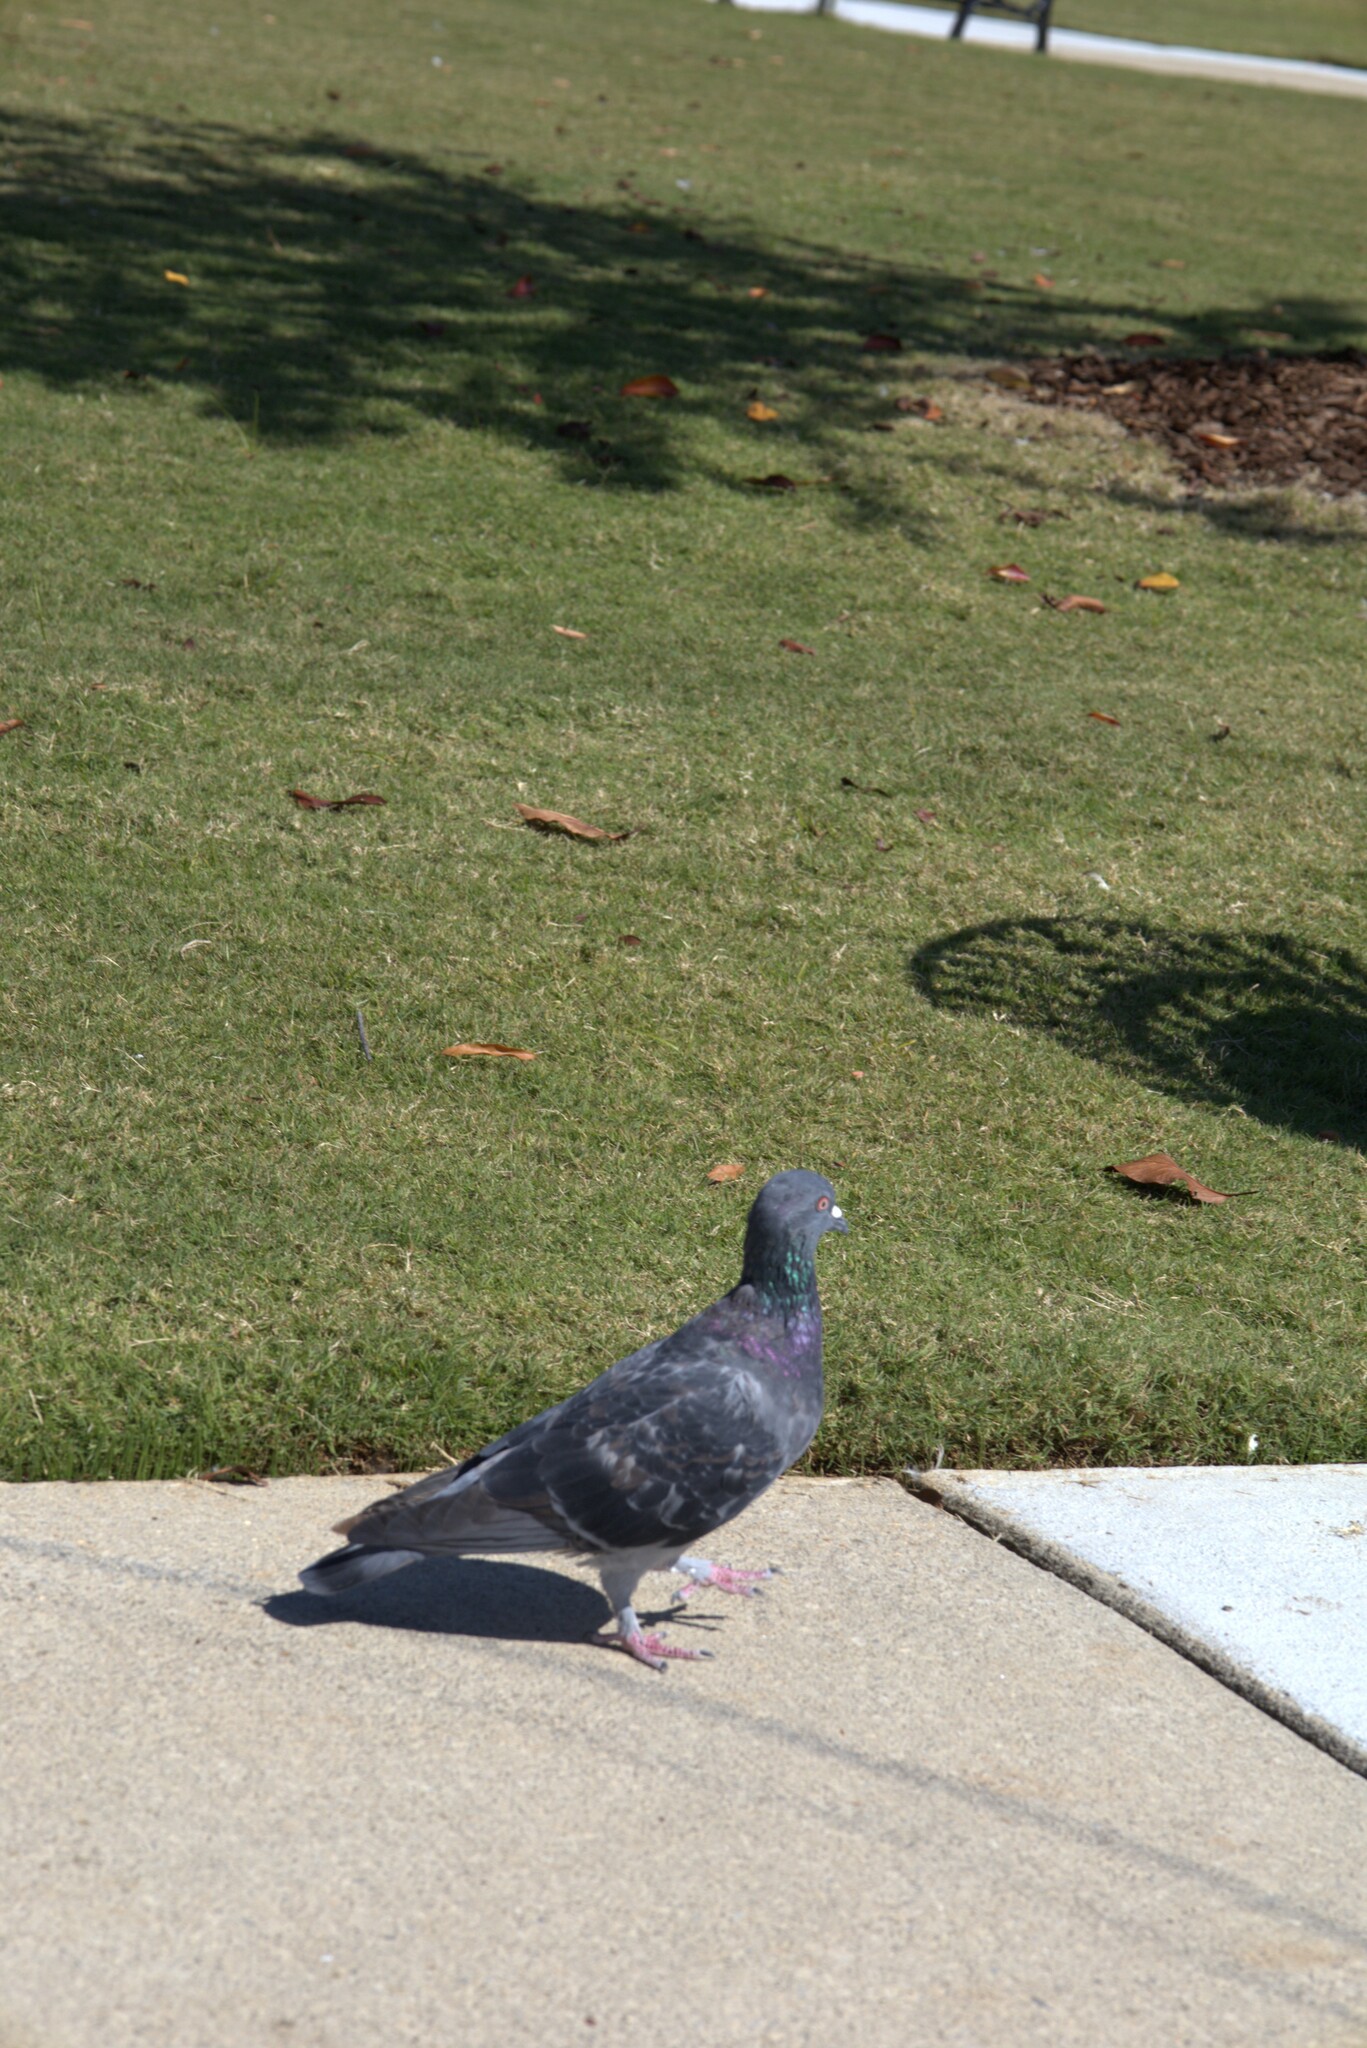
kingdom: Animalia
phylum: Chordata
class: Aves
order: Columbiformes
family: Columbidae
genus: Columba
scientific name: Columba livia
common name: Rock pigeon
